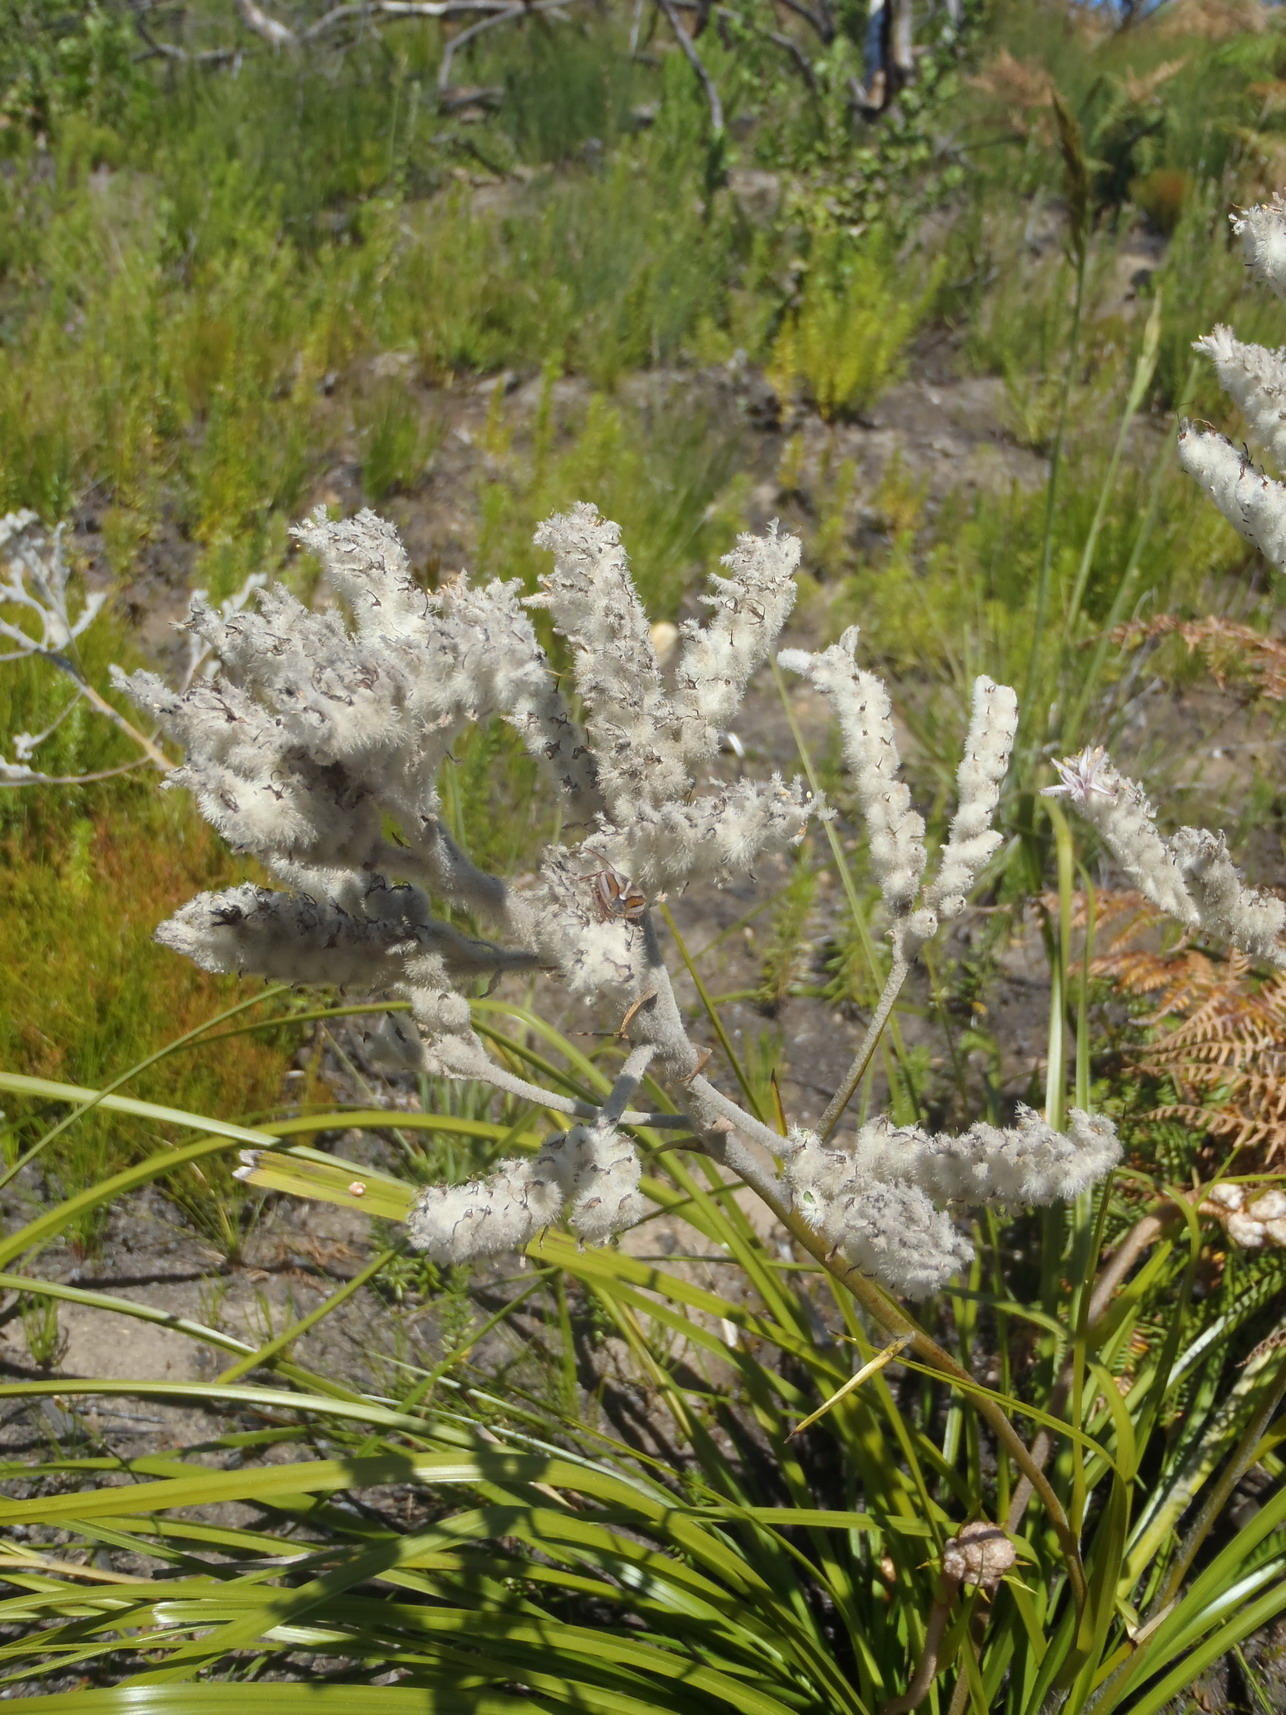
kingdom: Plantae
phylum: Tracheophyta
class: Liliopsida
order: Asparagales
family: Lanariaceae
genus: Lanaria
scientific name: Lanaria lanata
